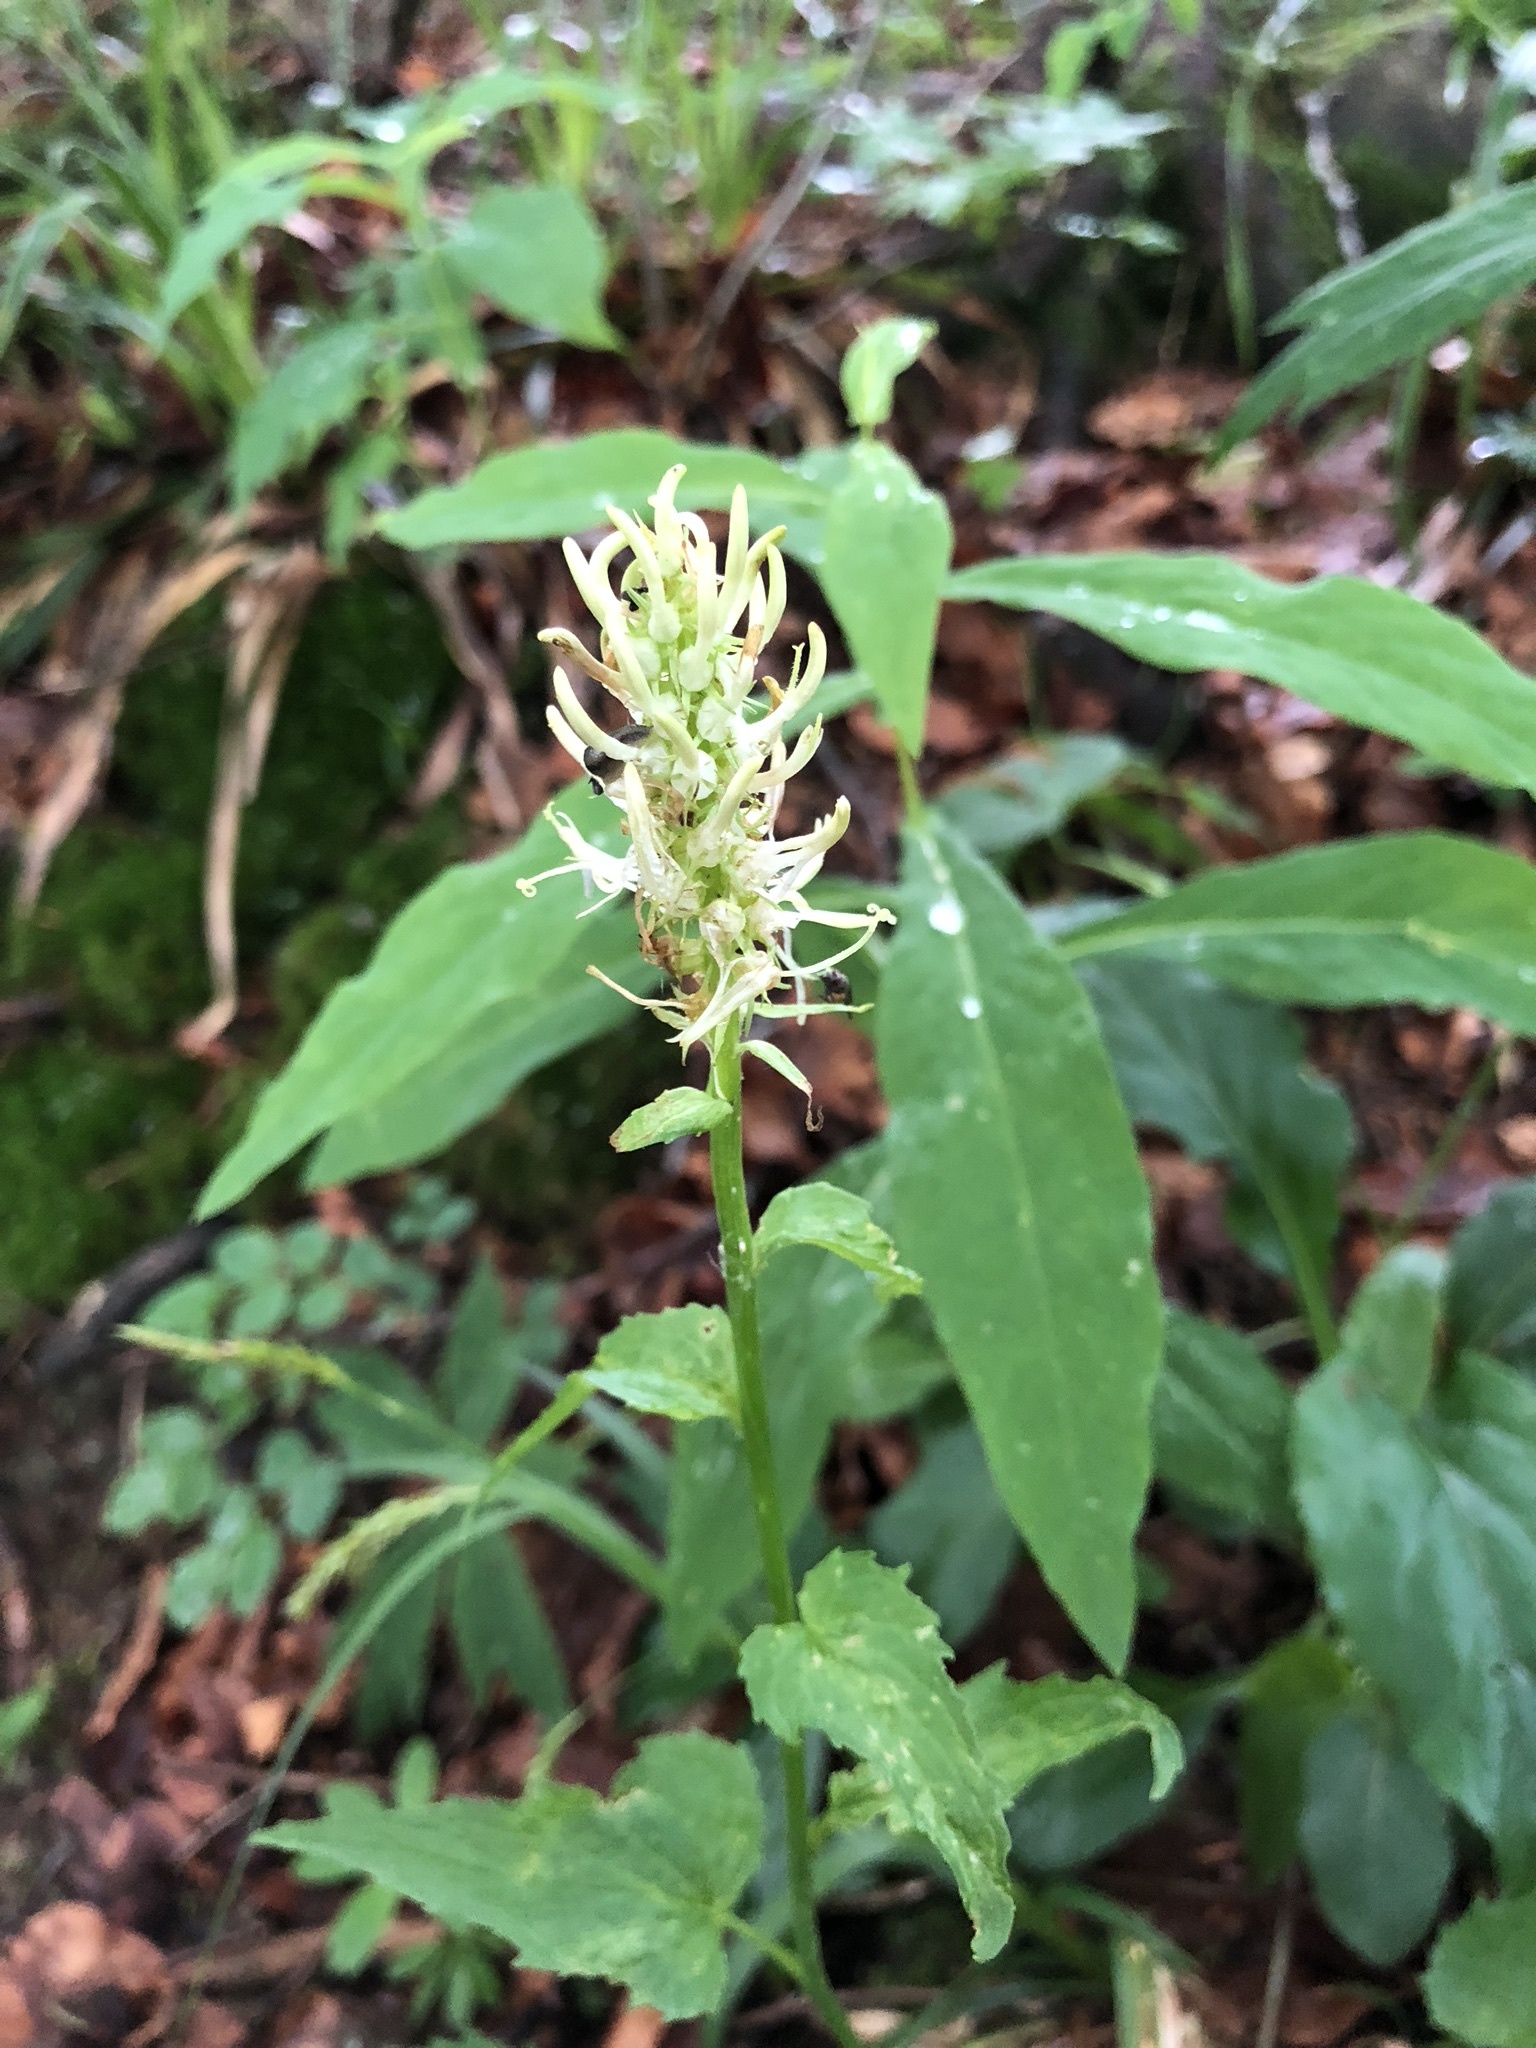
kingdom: Plantae
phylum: Tracheophyta
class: Magnoliopsida
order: Asterales
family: Campanulaceae
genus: Phyteuma
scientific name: Phyteuma spicatum
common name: Spiked rampion
